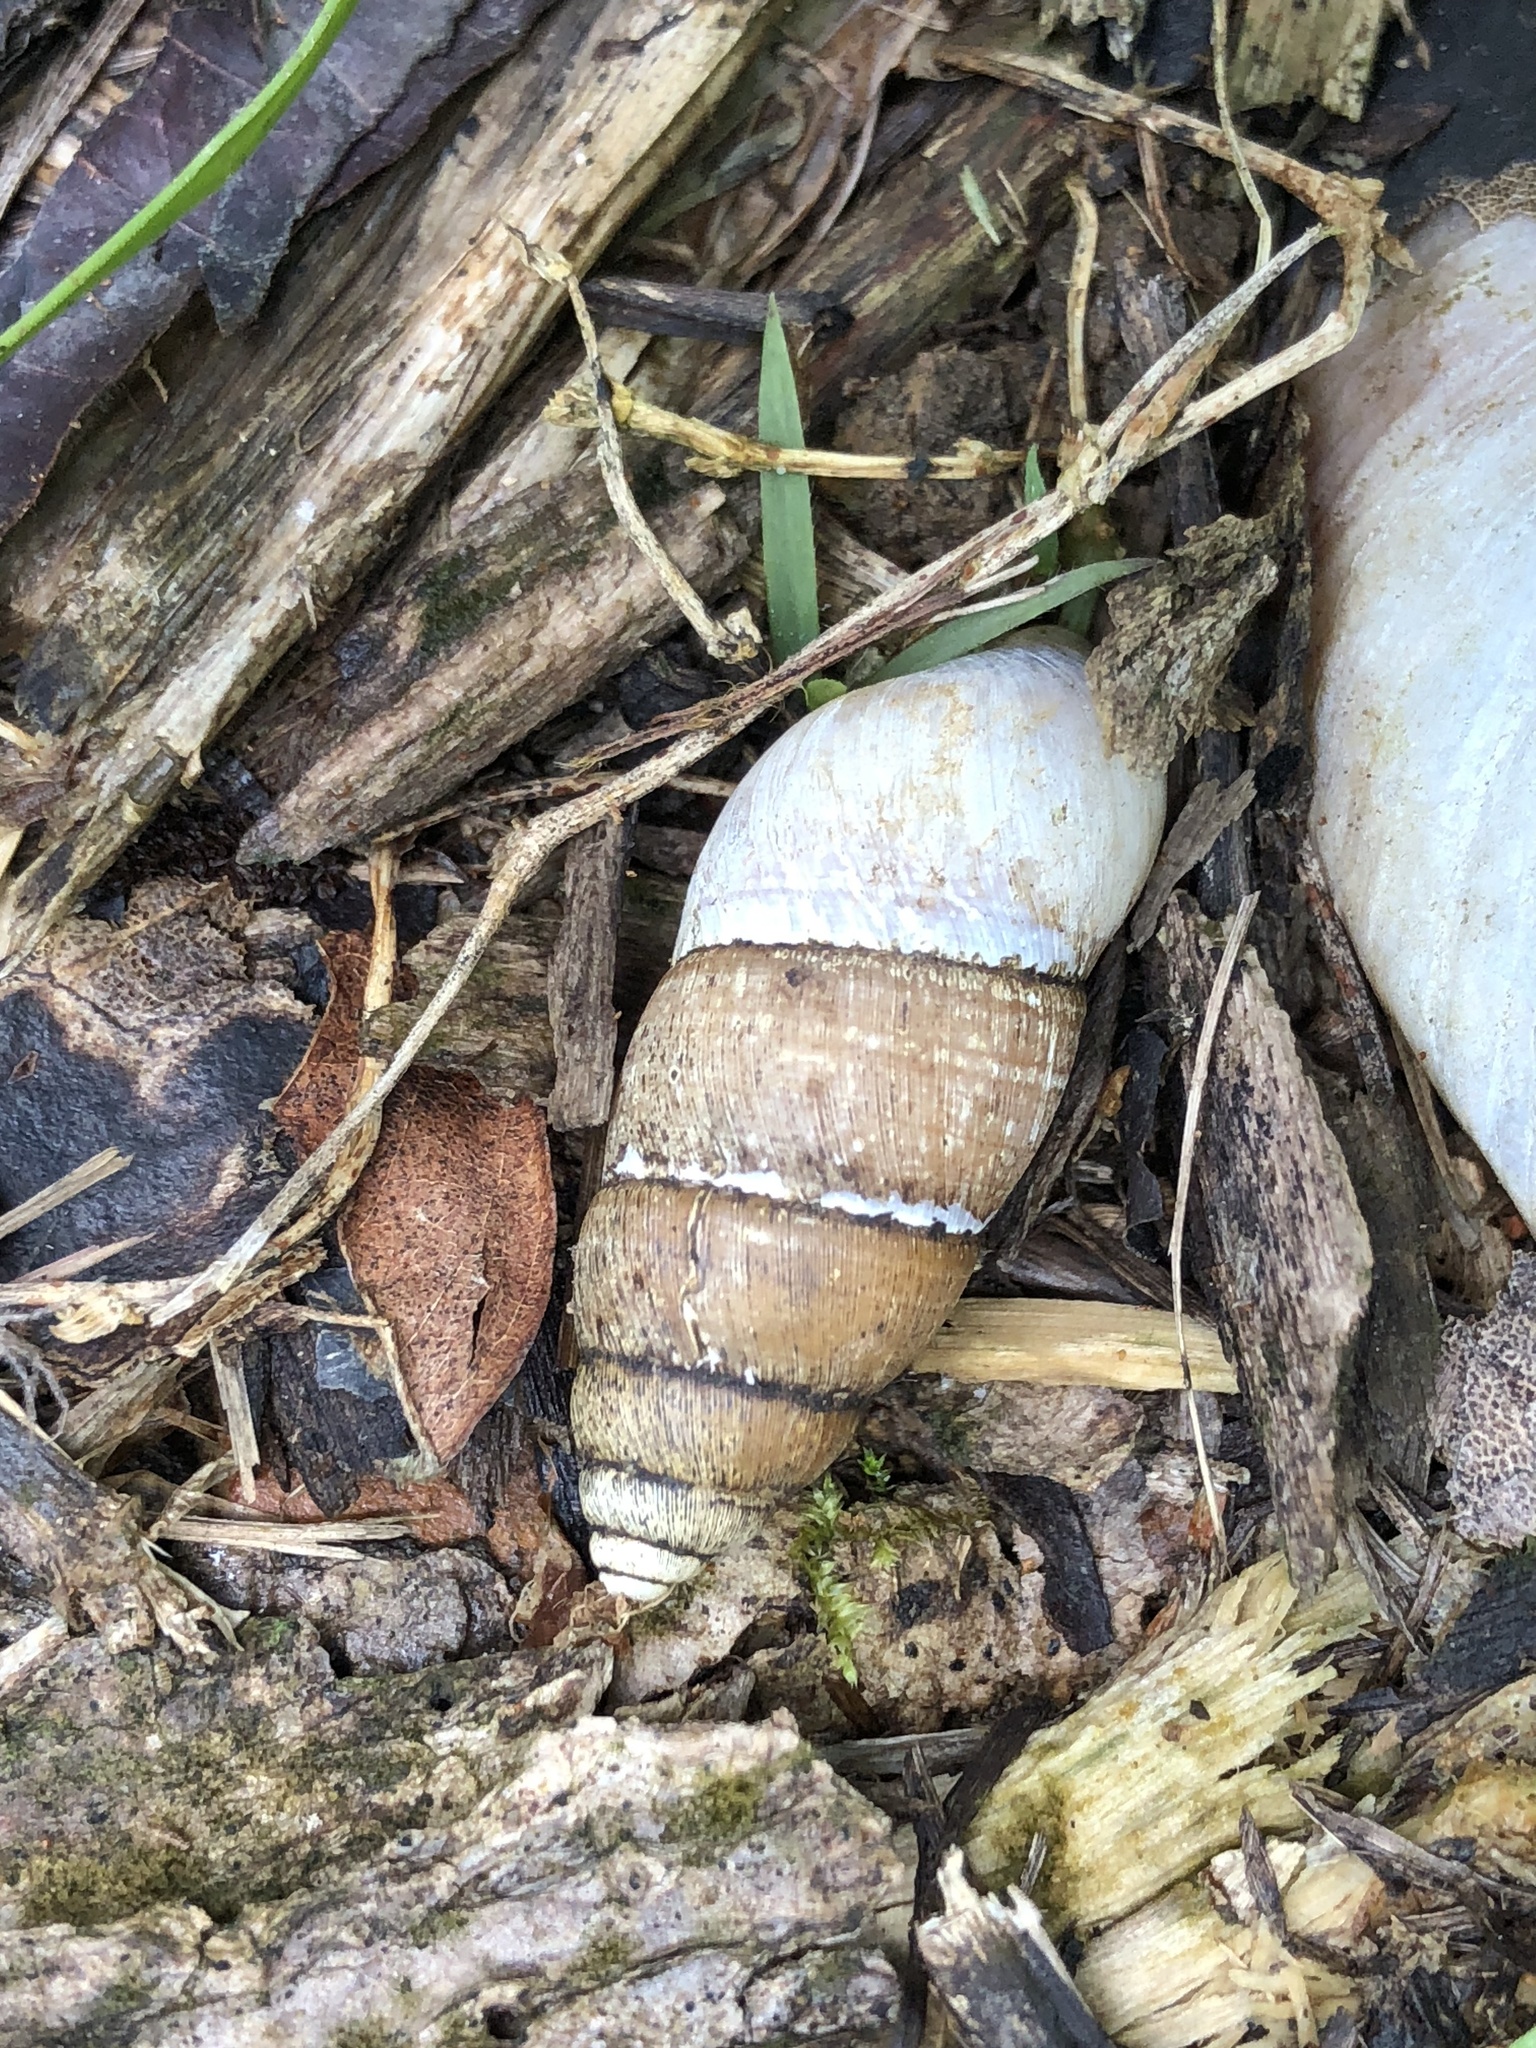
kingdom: Animalia
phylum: Mollusca
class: Gastropoda
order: Architaenioglossa
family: Megalomastomatidae
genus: Neopupina
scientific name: Neopupina crocea
